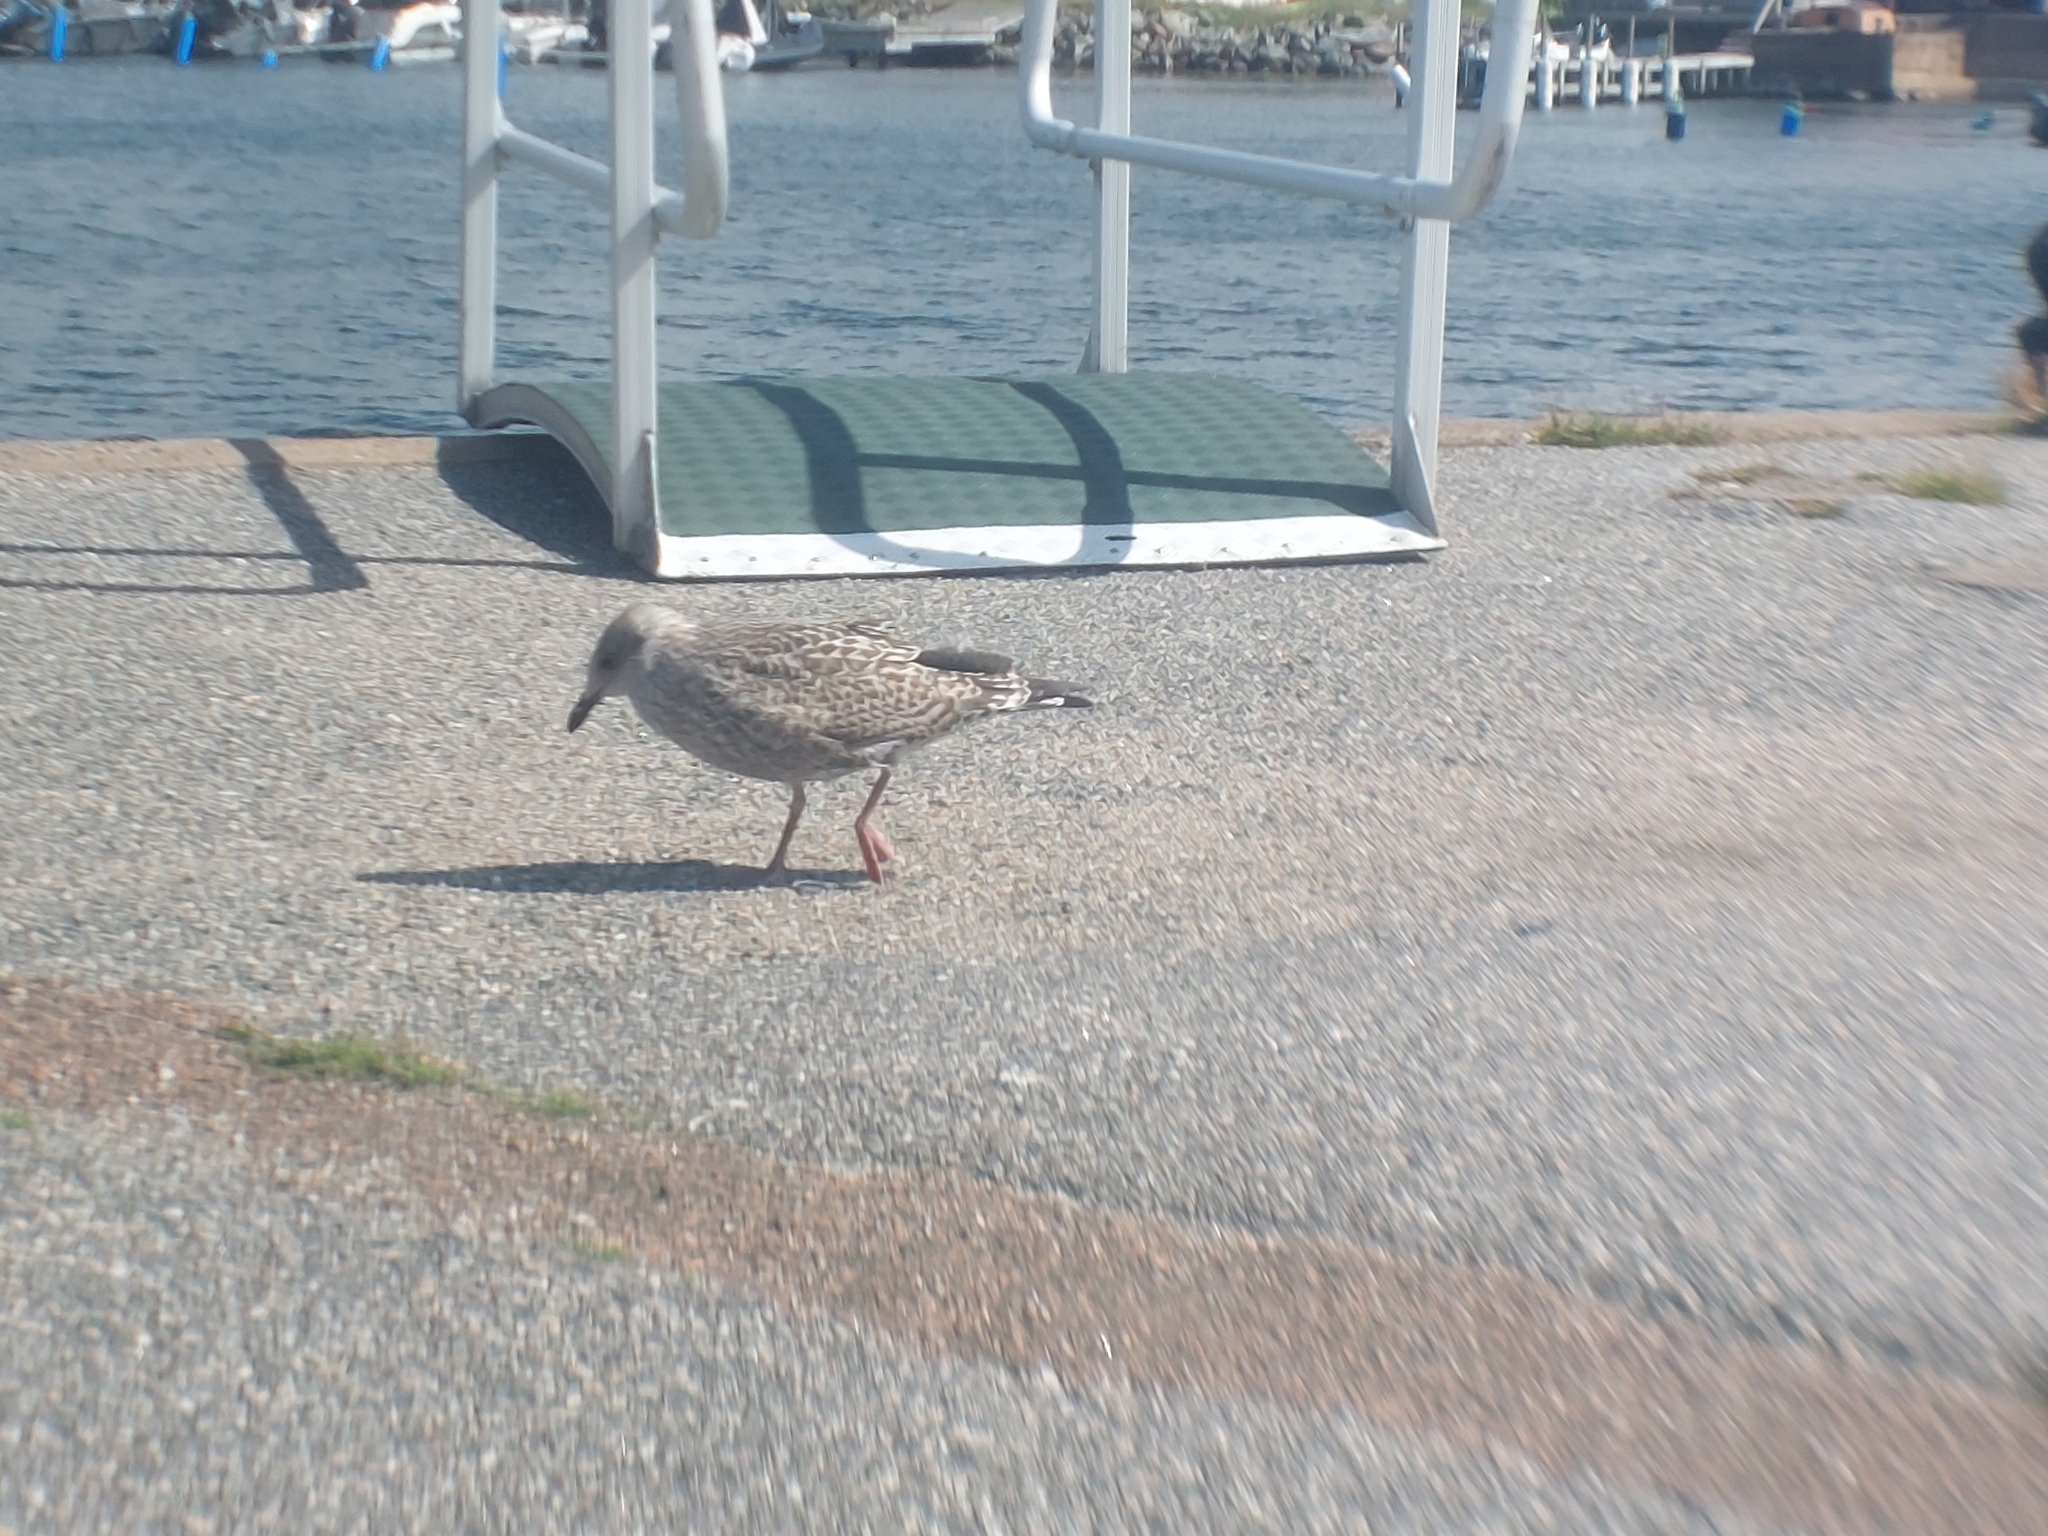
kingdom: Animalia
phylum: Chordata
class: Aves
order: Charadriiformes
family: Laridae
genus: Larus
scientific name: Larus argentatus
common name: Herring gull
